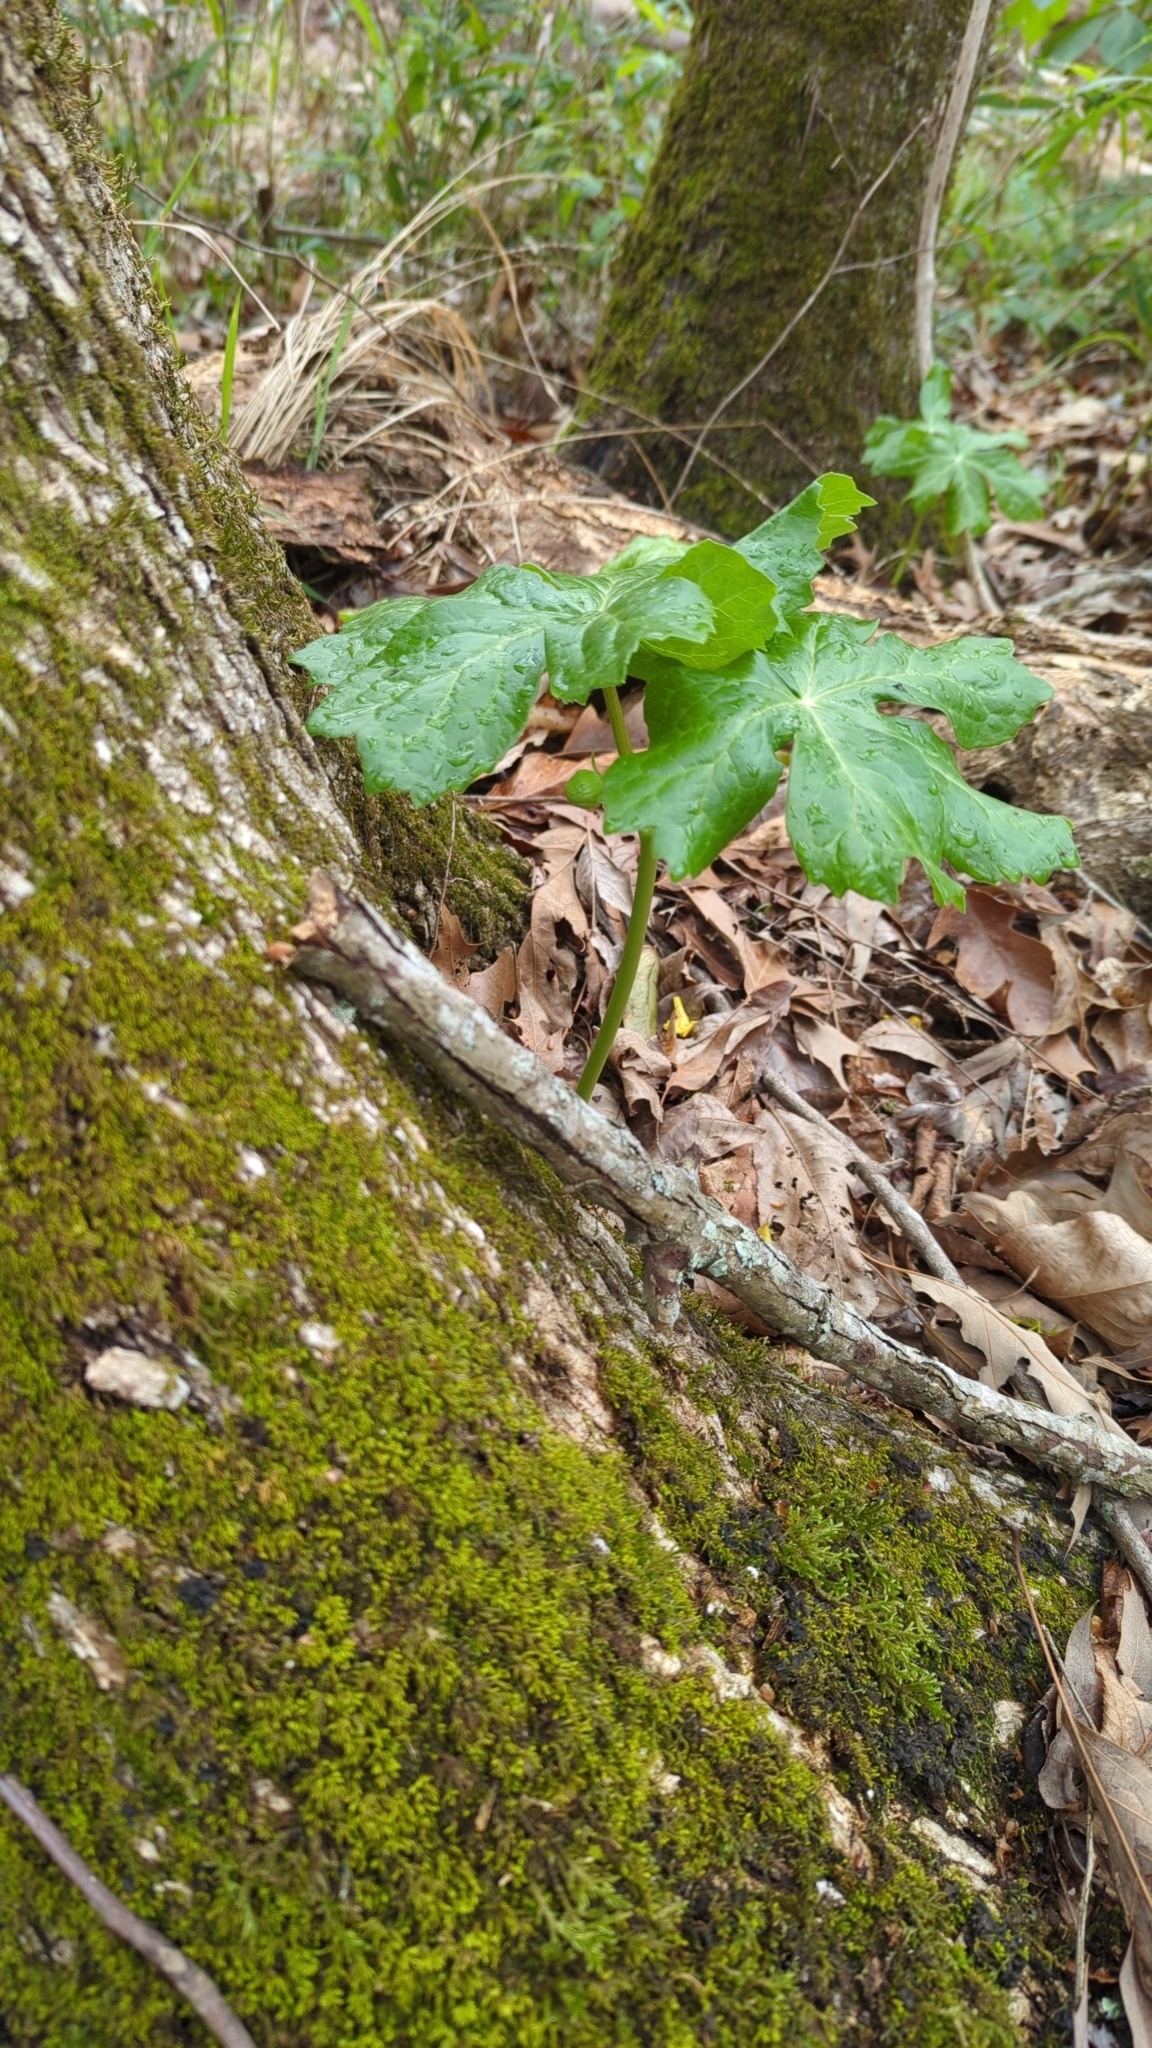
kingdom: Plantae
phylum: Tracheophyta
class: Magnoliopsida
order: Ranunculales
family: Berberidaceae
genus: Podophyllum
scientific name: Podophyllum peltatum
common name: Wild mandrake
